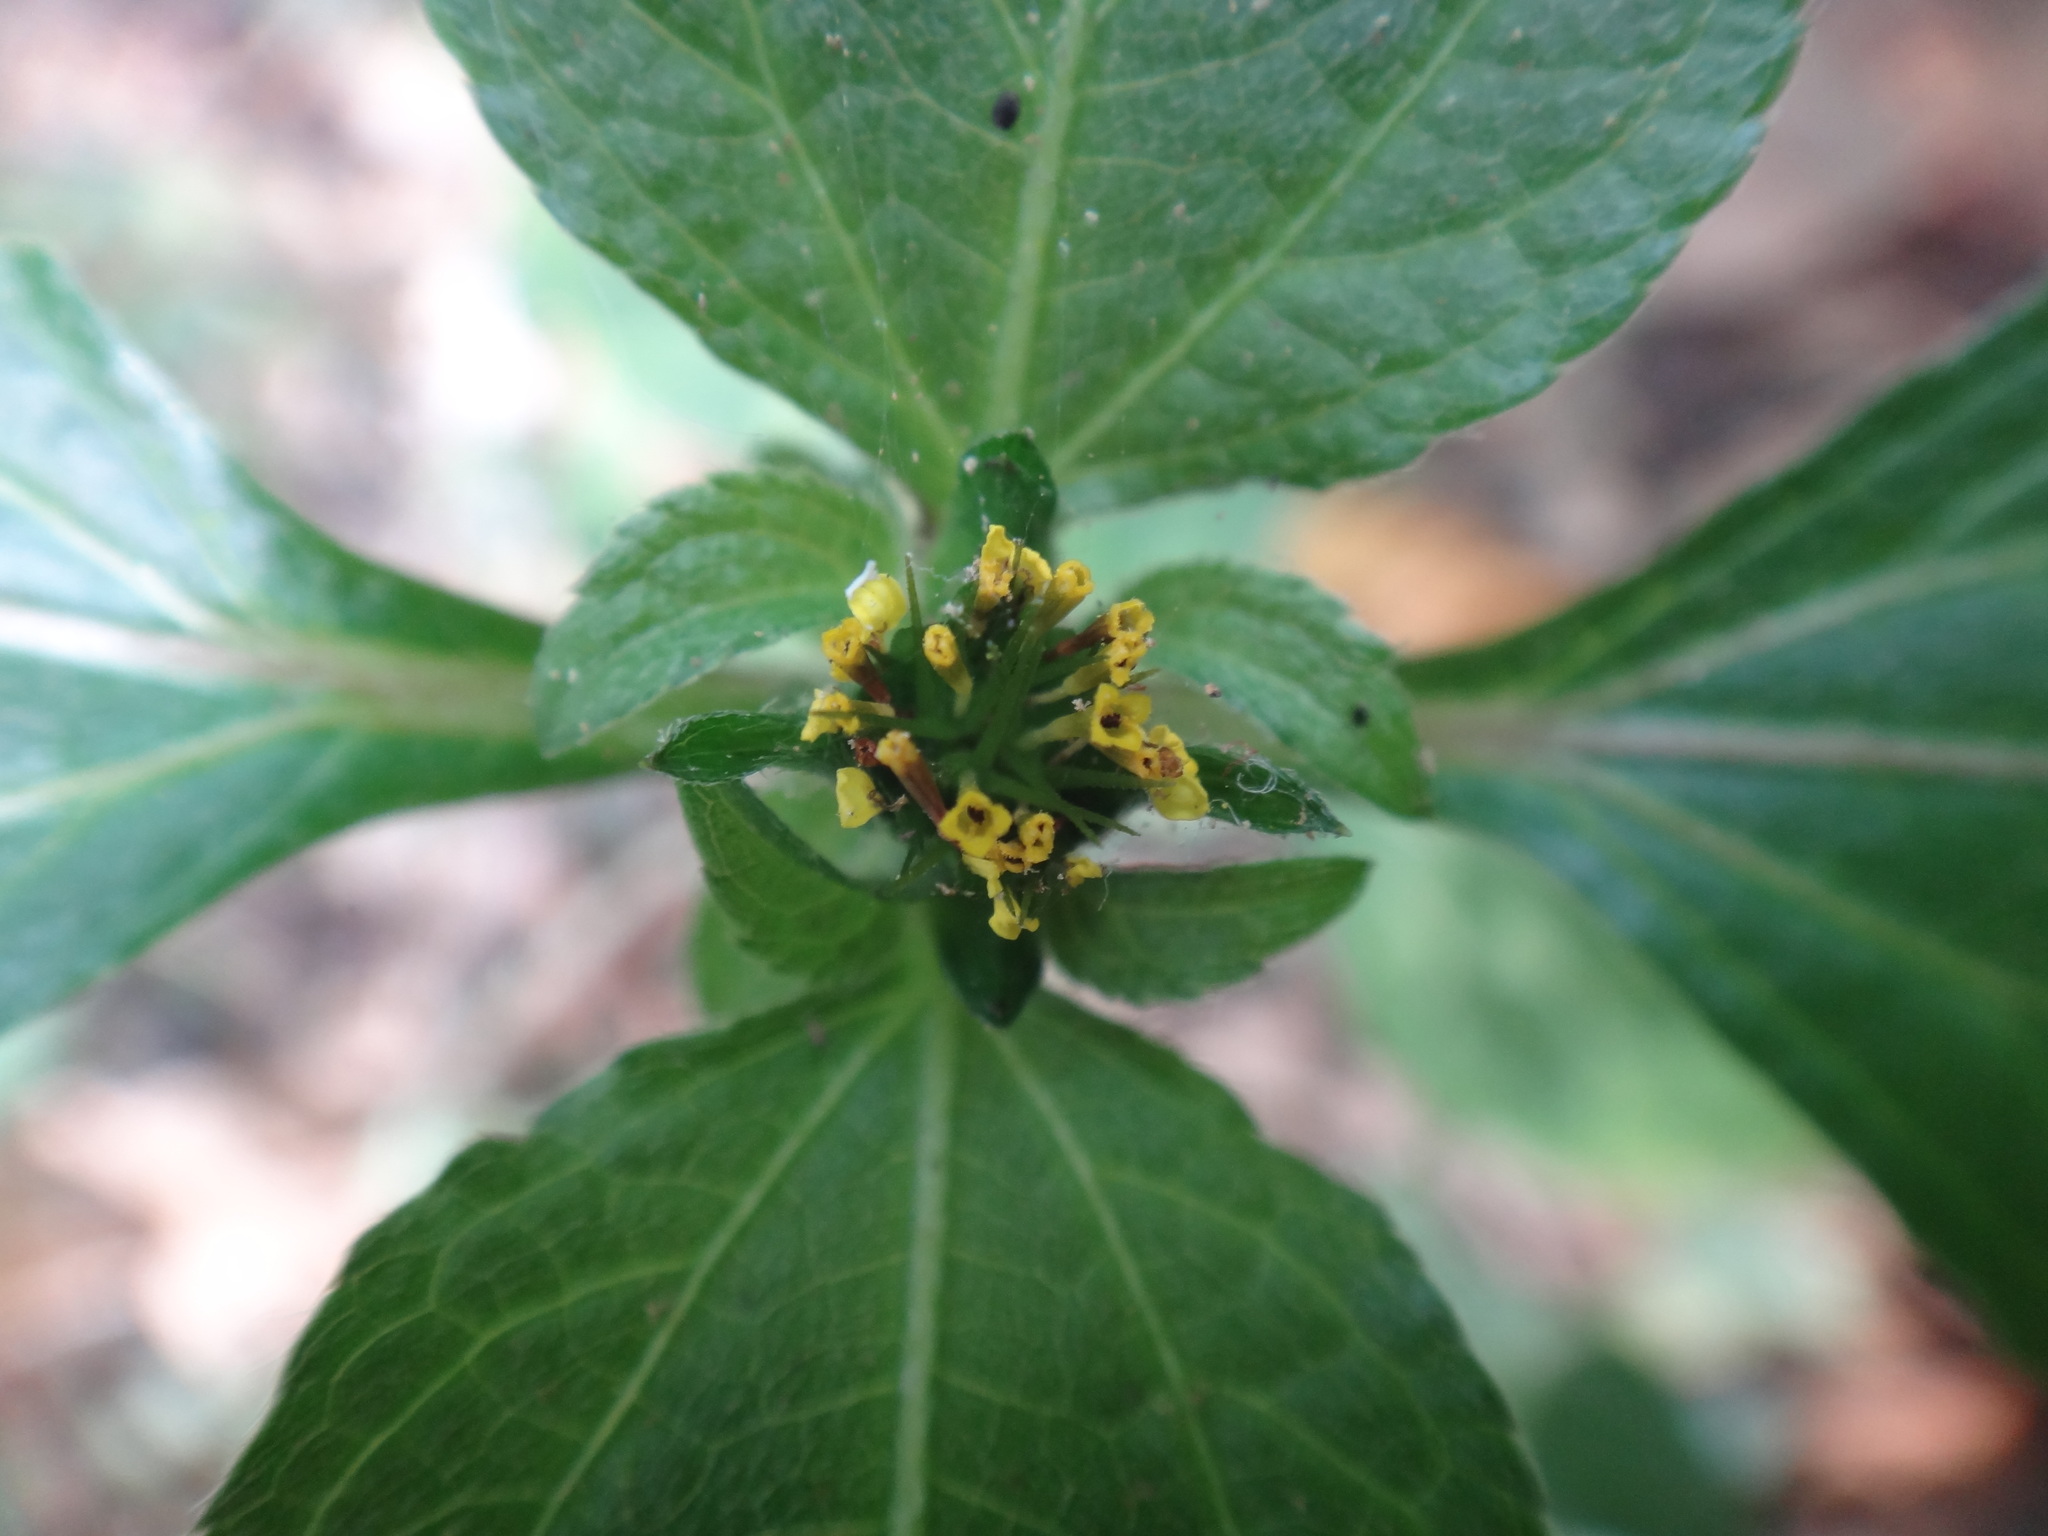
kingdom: Plantae
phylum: Tracheophyta
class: Magnoliopsida
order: Asterales
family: Asteraceae
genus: Synedrella
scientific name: Synedrella nodiflora
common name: Nodeweed
